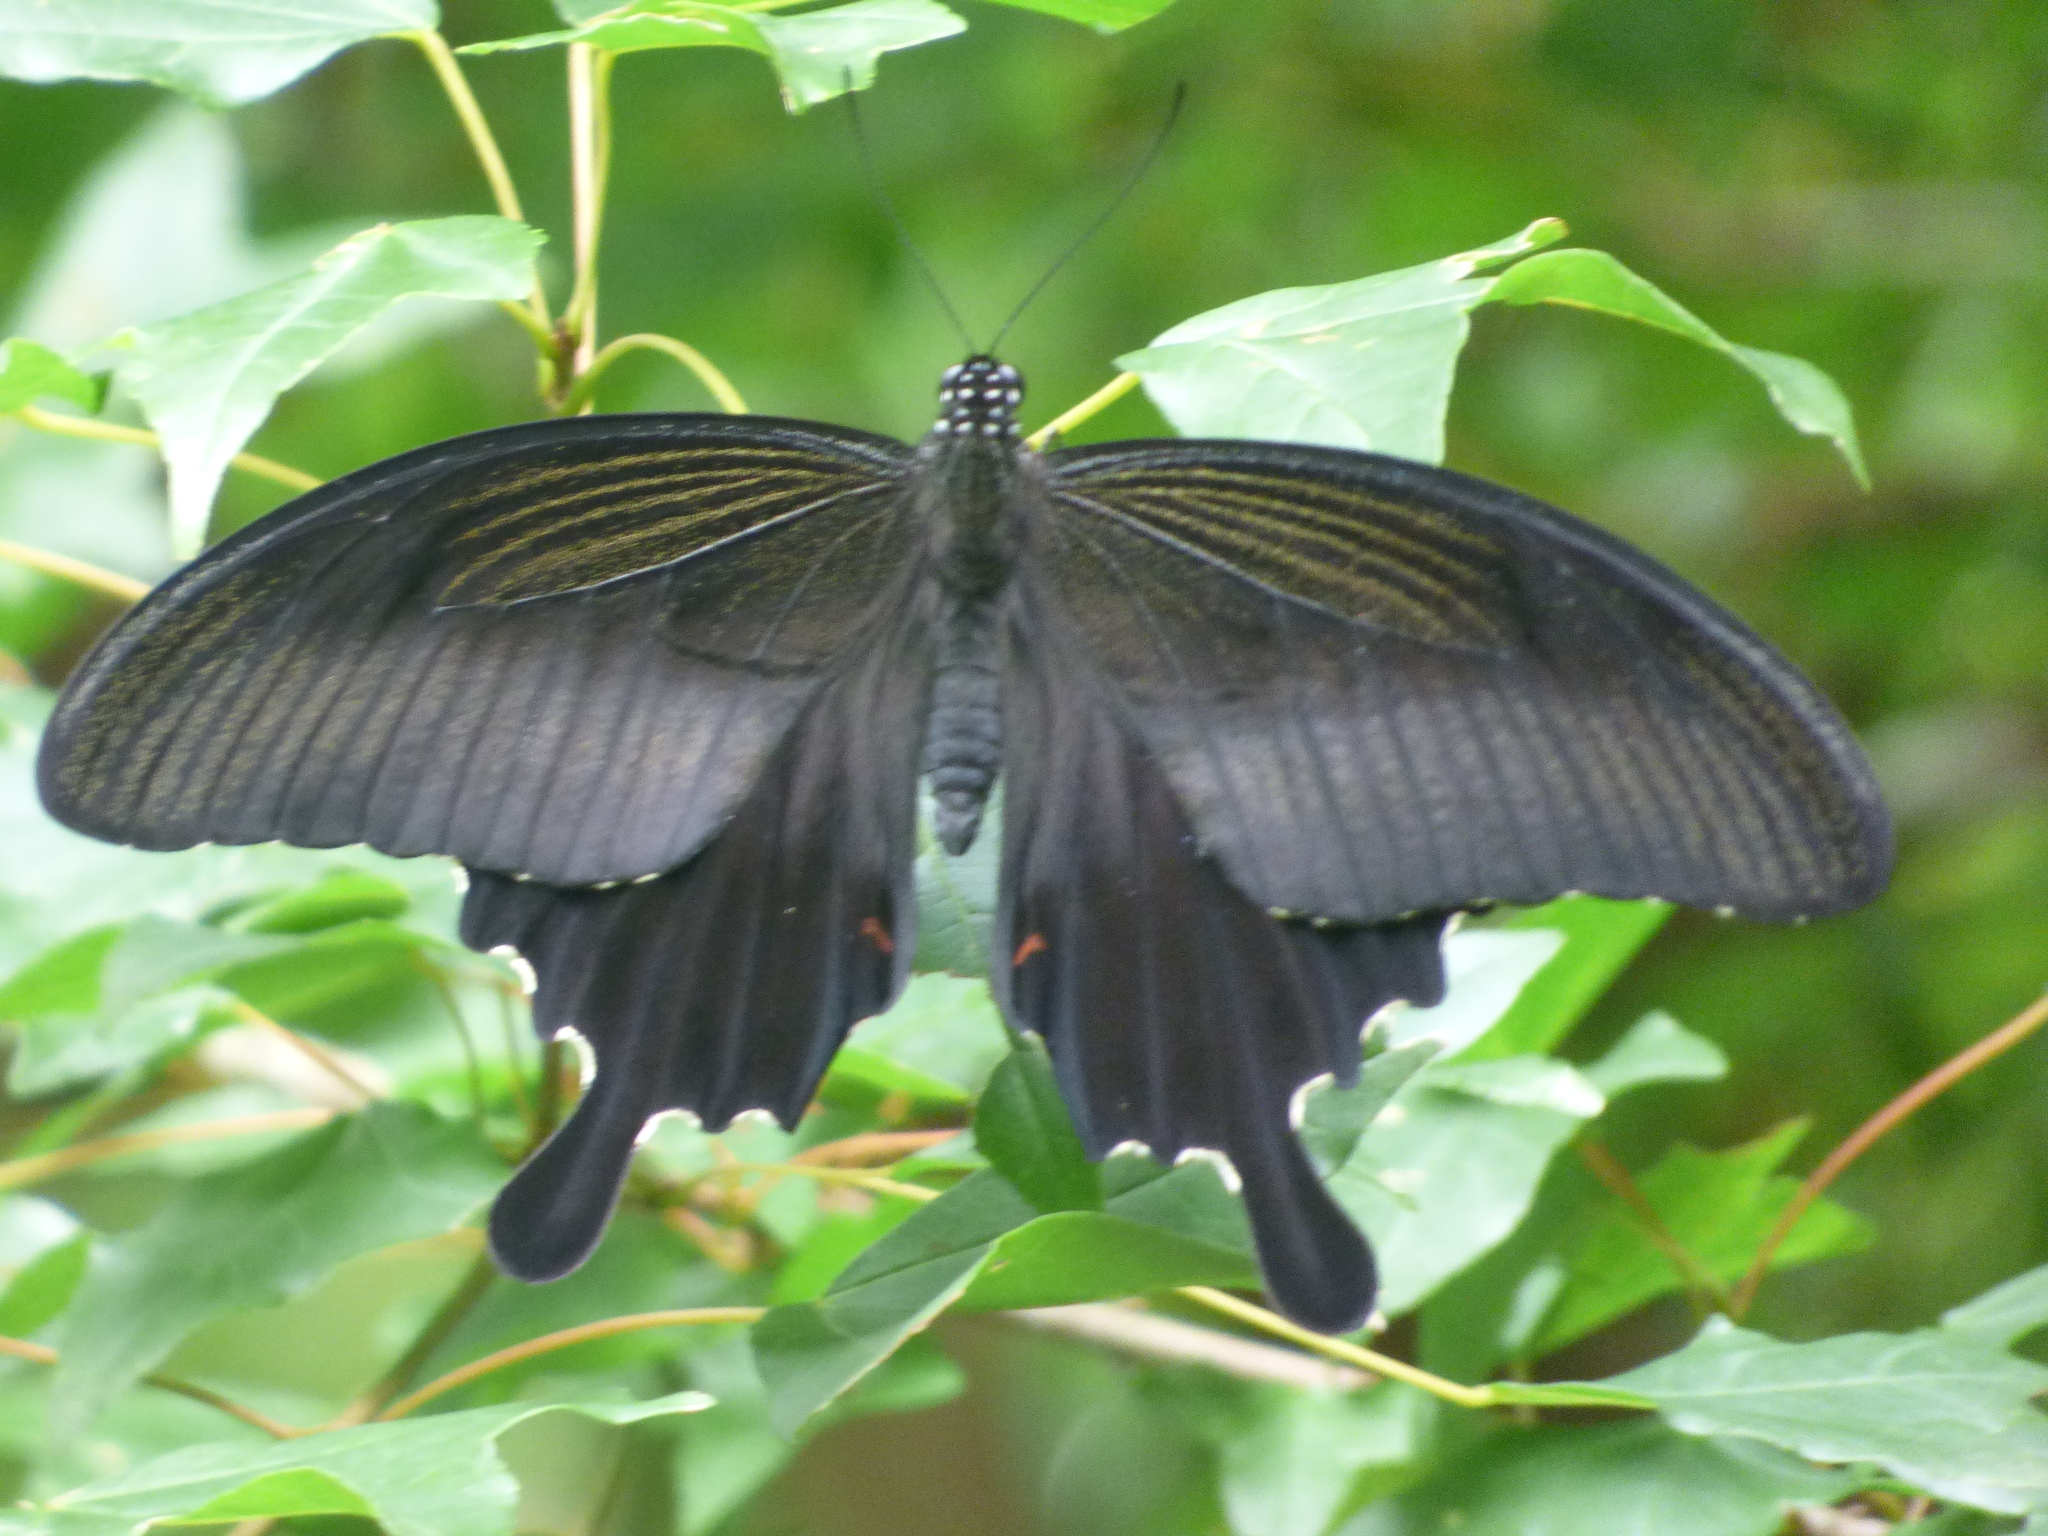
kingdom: Animalia
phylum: Arthropoda
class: Insecta
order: Lepidoptera
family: Papilionidae
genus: Papilio
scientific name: Papilio helenus
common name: Red helen
